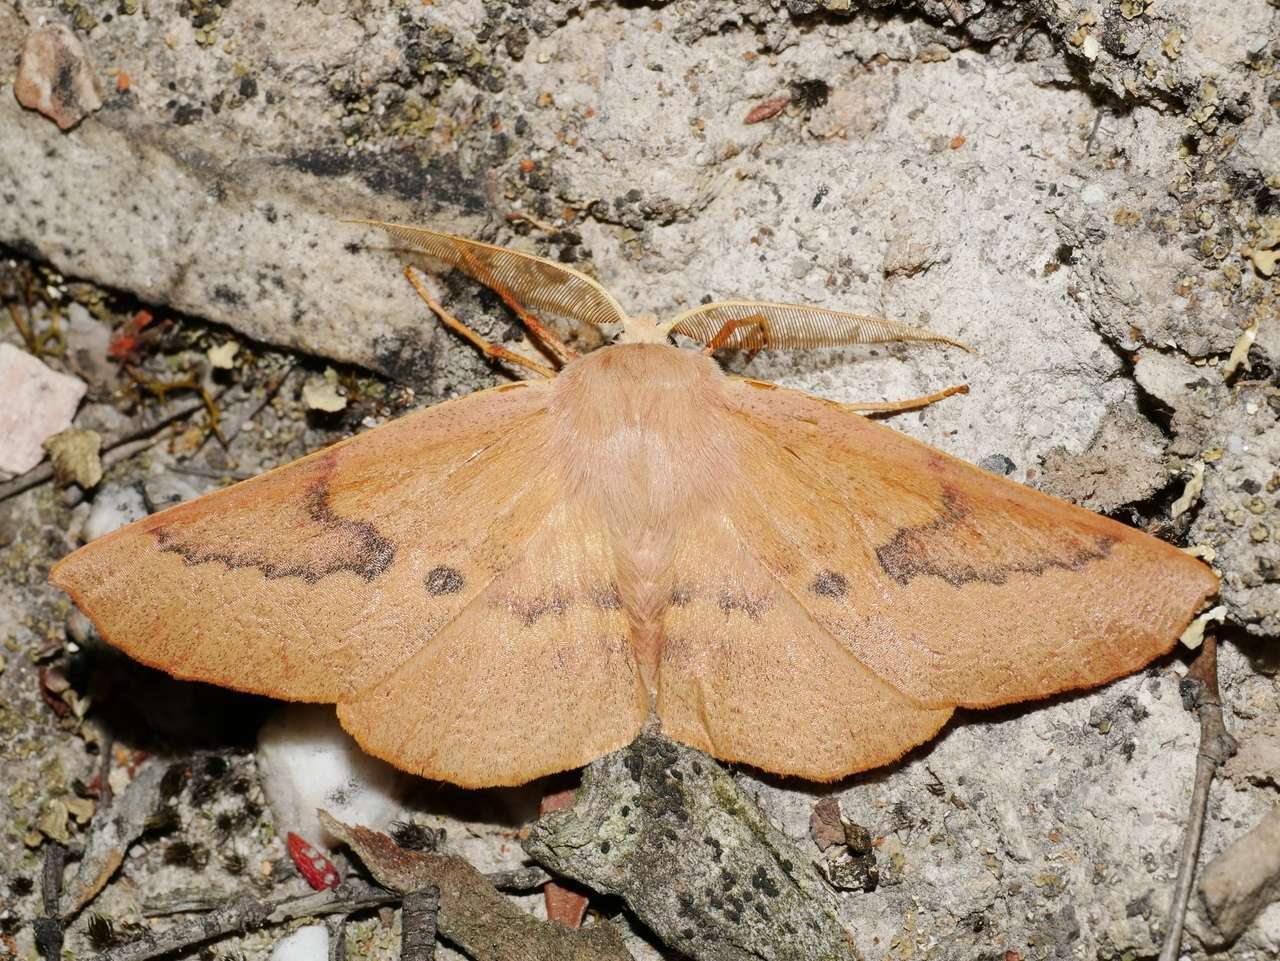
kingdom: Animalia
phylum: Arthropoda
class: Insecta
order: Lepidoptera
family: Geometridae
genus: Monoctenia
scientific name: Monoctenia falernaria
